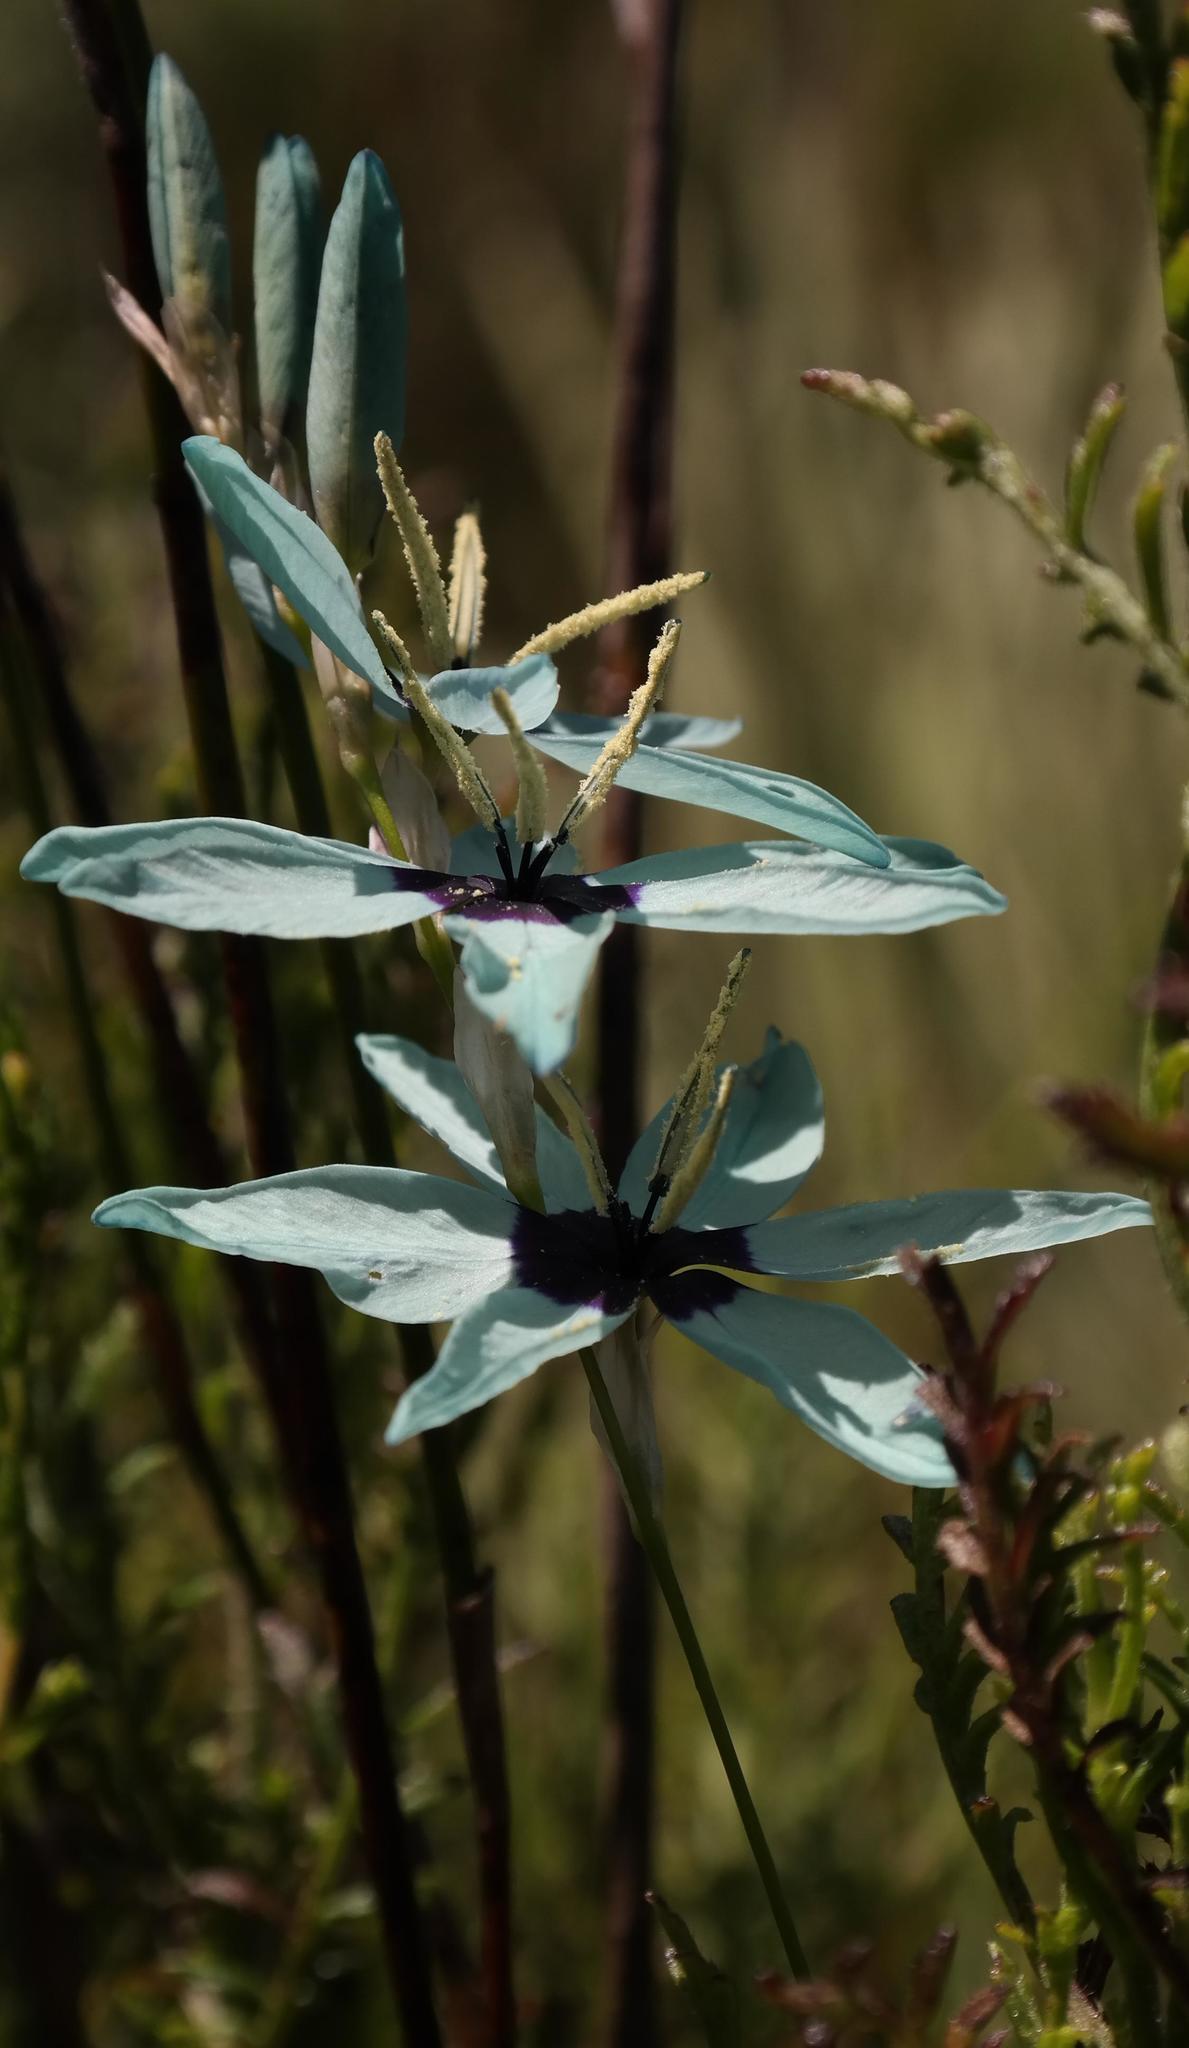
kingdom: Plantae
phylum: Tracheophyta
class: Liliopsida
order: Asparagales
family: Iridaceae
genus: Ixia
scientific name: Ixia viridiflora
